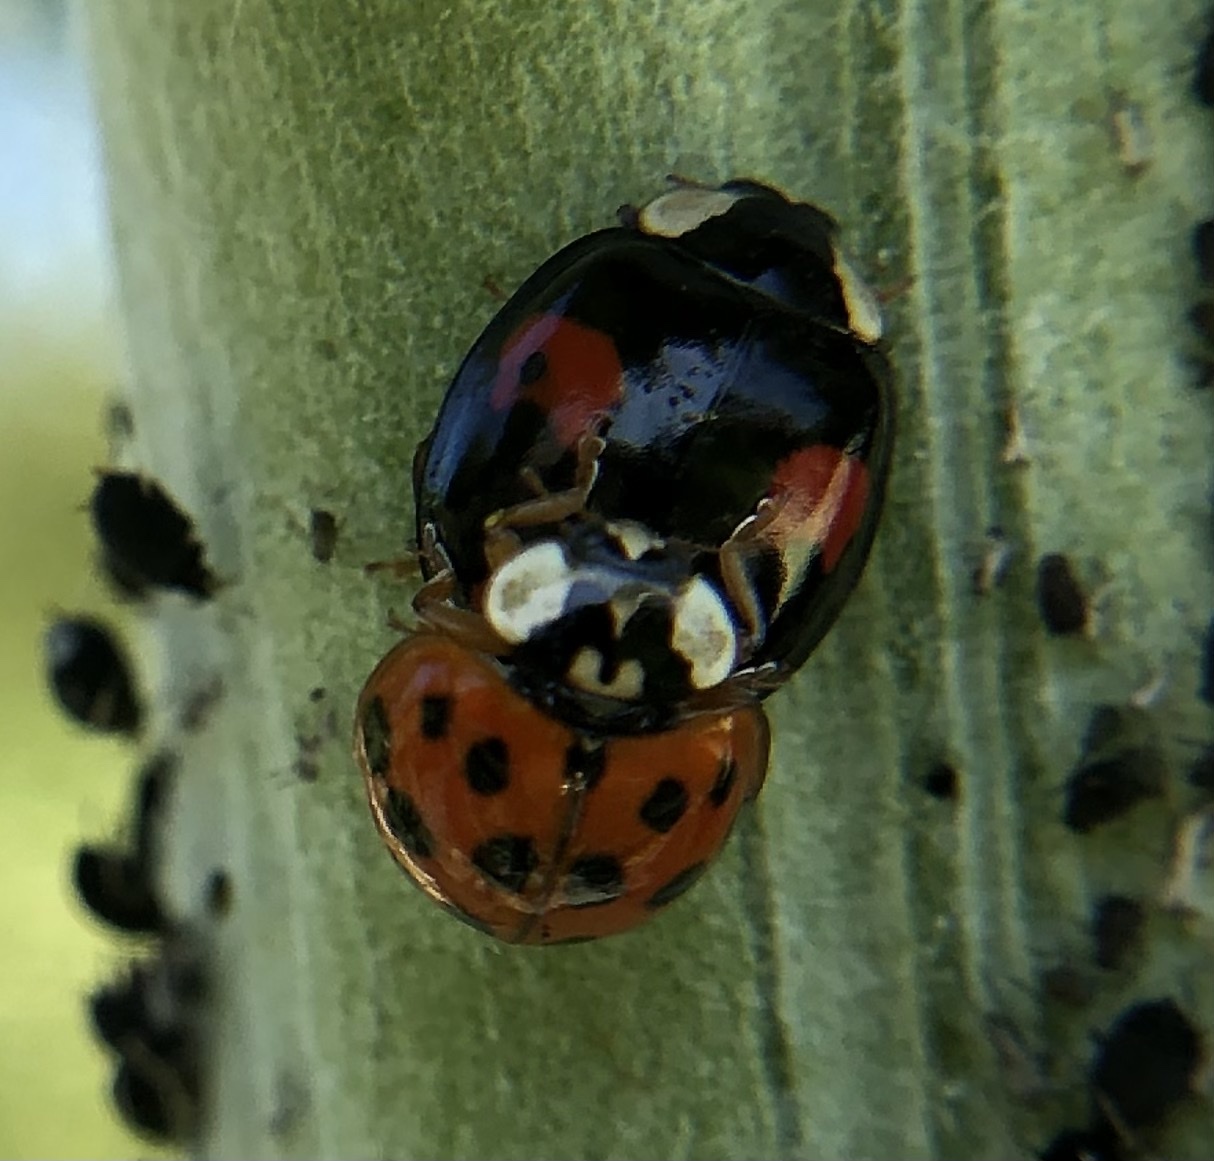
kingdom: Animalia
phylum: Arthropoda
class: Insecta
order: Coleoptera
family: Coccinellidae
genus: Harmonia
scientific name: Harmonia axyridis
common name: Harlequin ladybird
